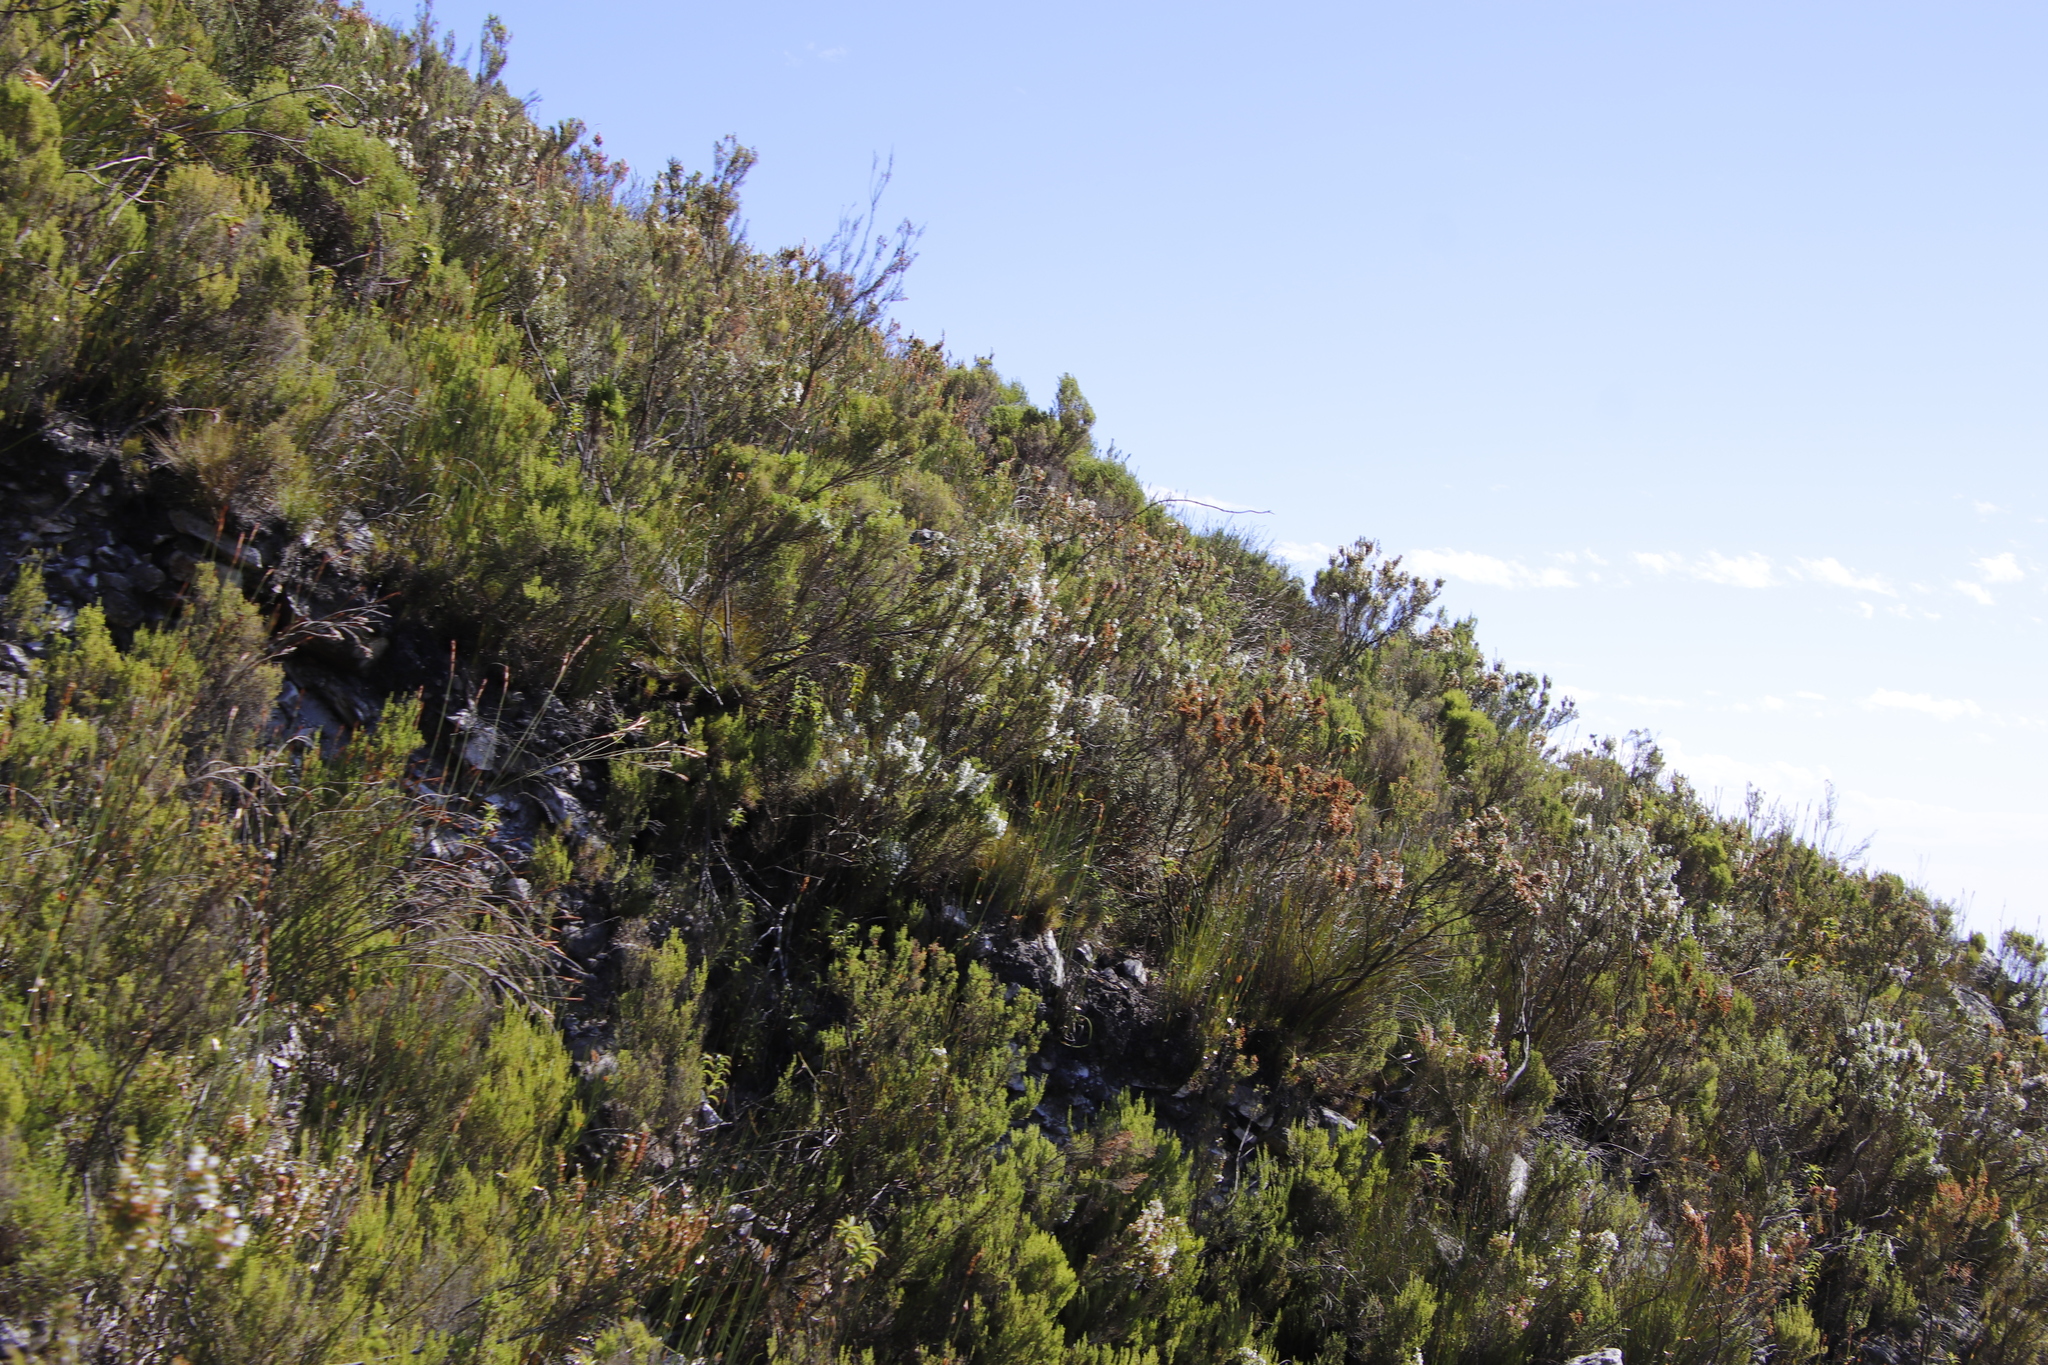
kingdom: Plantae
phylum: Tracheophyta
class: Magnoliopsida
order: Ericales
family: Ericaceae
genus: Erica
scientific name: Erica sitiens
